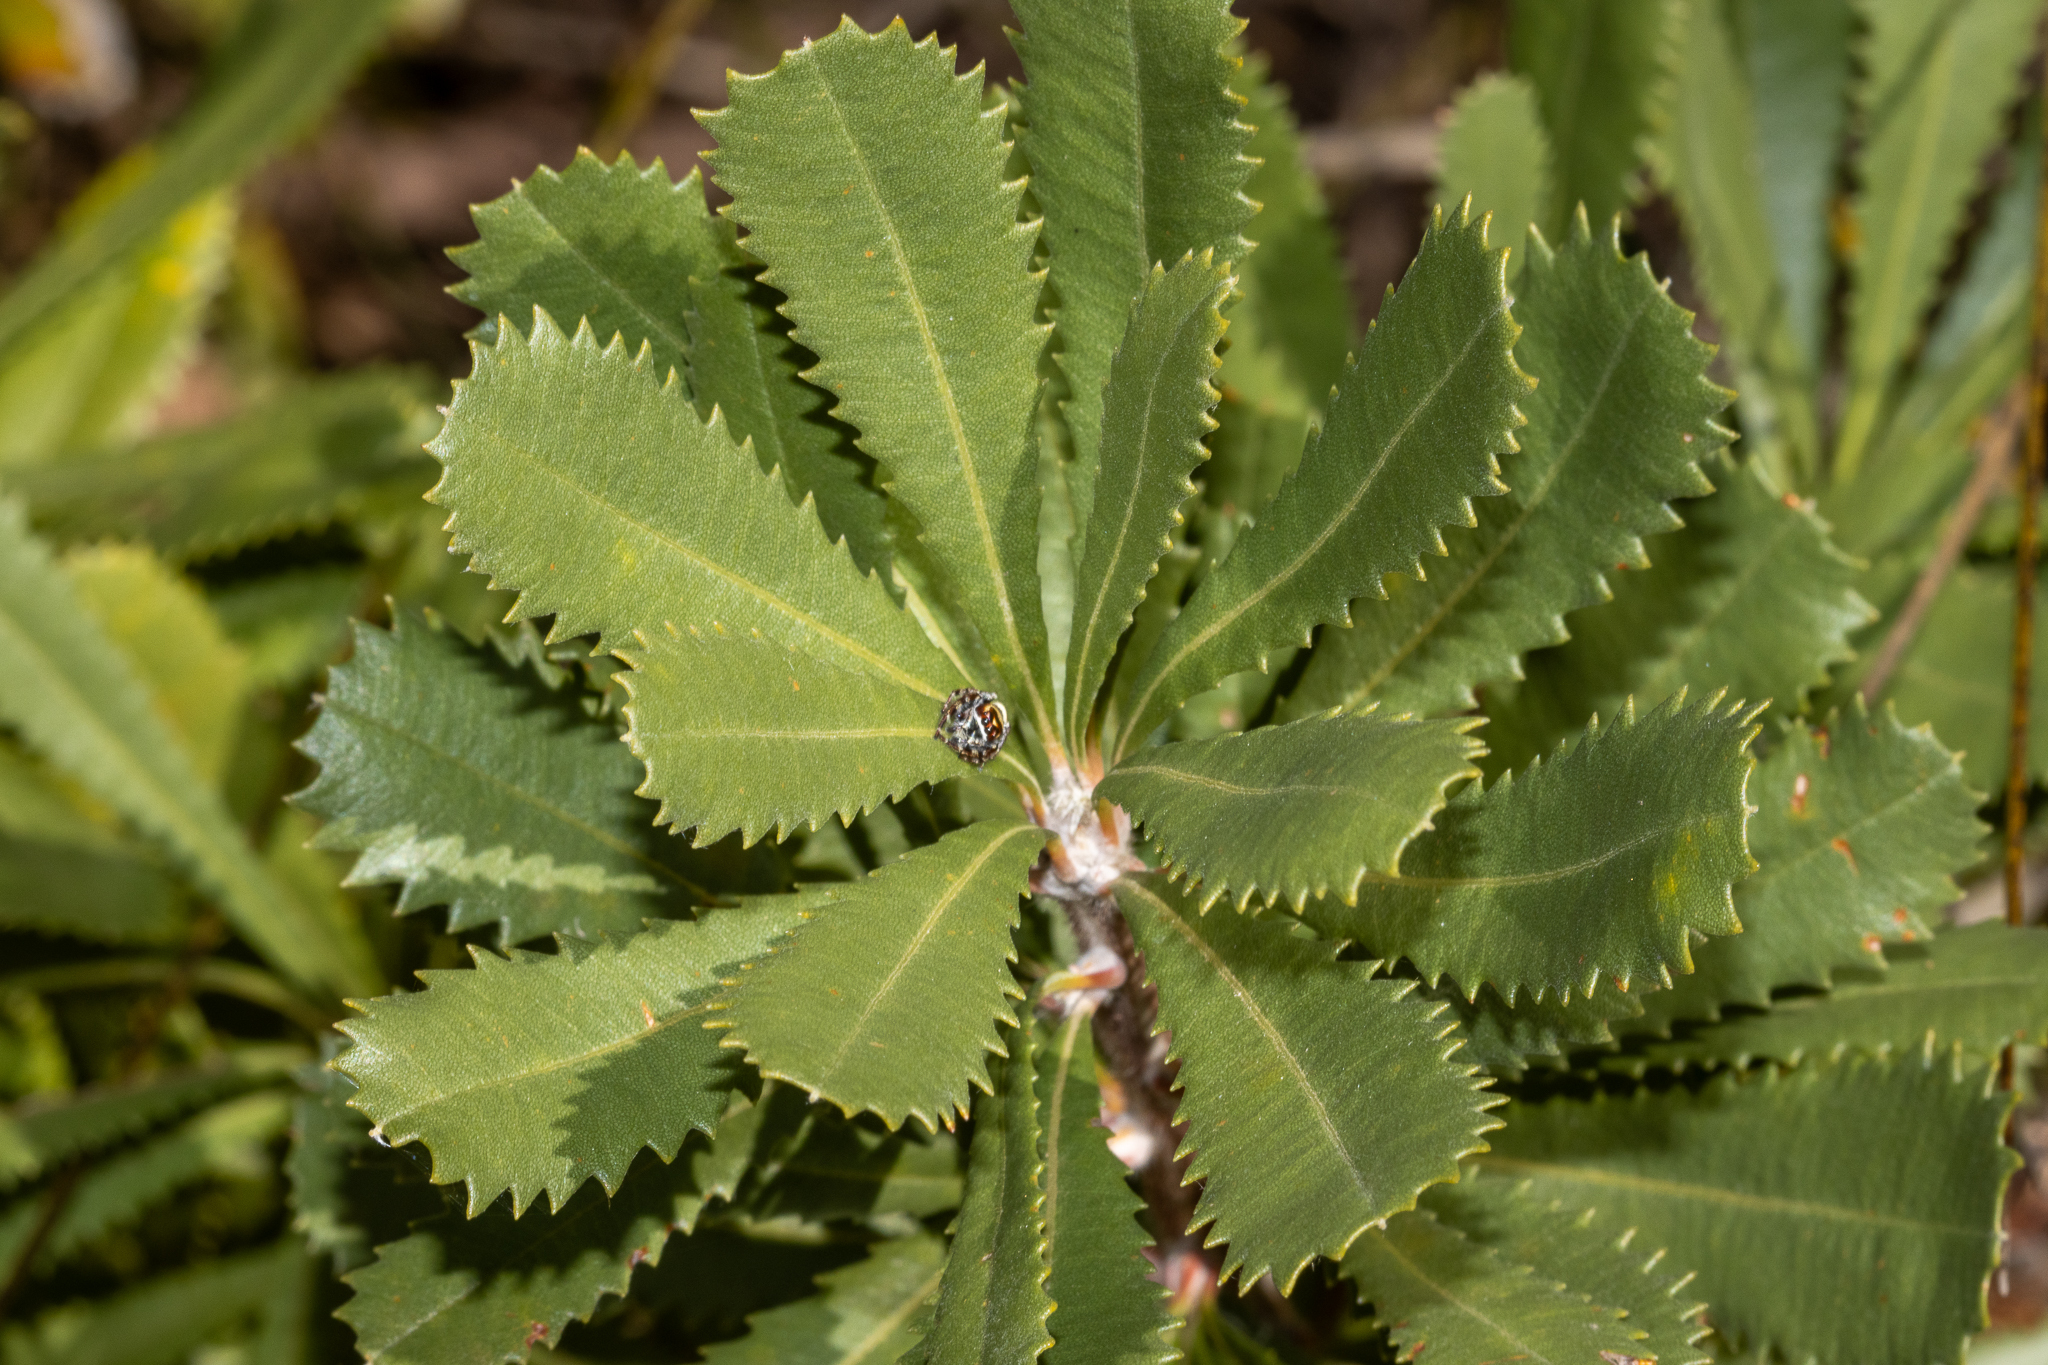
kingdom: Plantae
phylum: Tracheophyta
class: Magnoliopsida
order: Proteales
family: Proteaceae
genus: Banksia
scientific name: Banksia ornata
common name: Desert banksia
